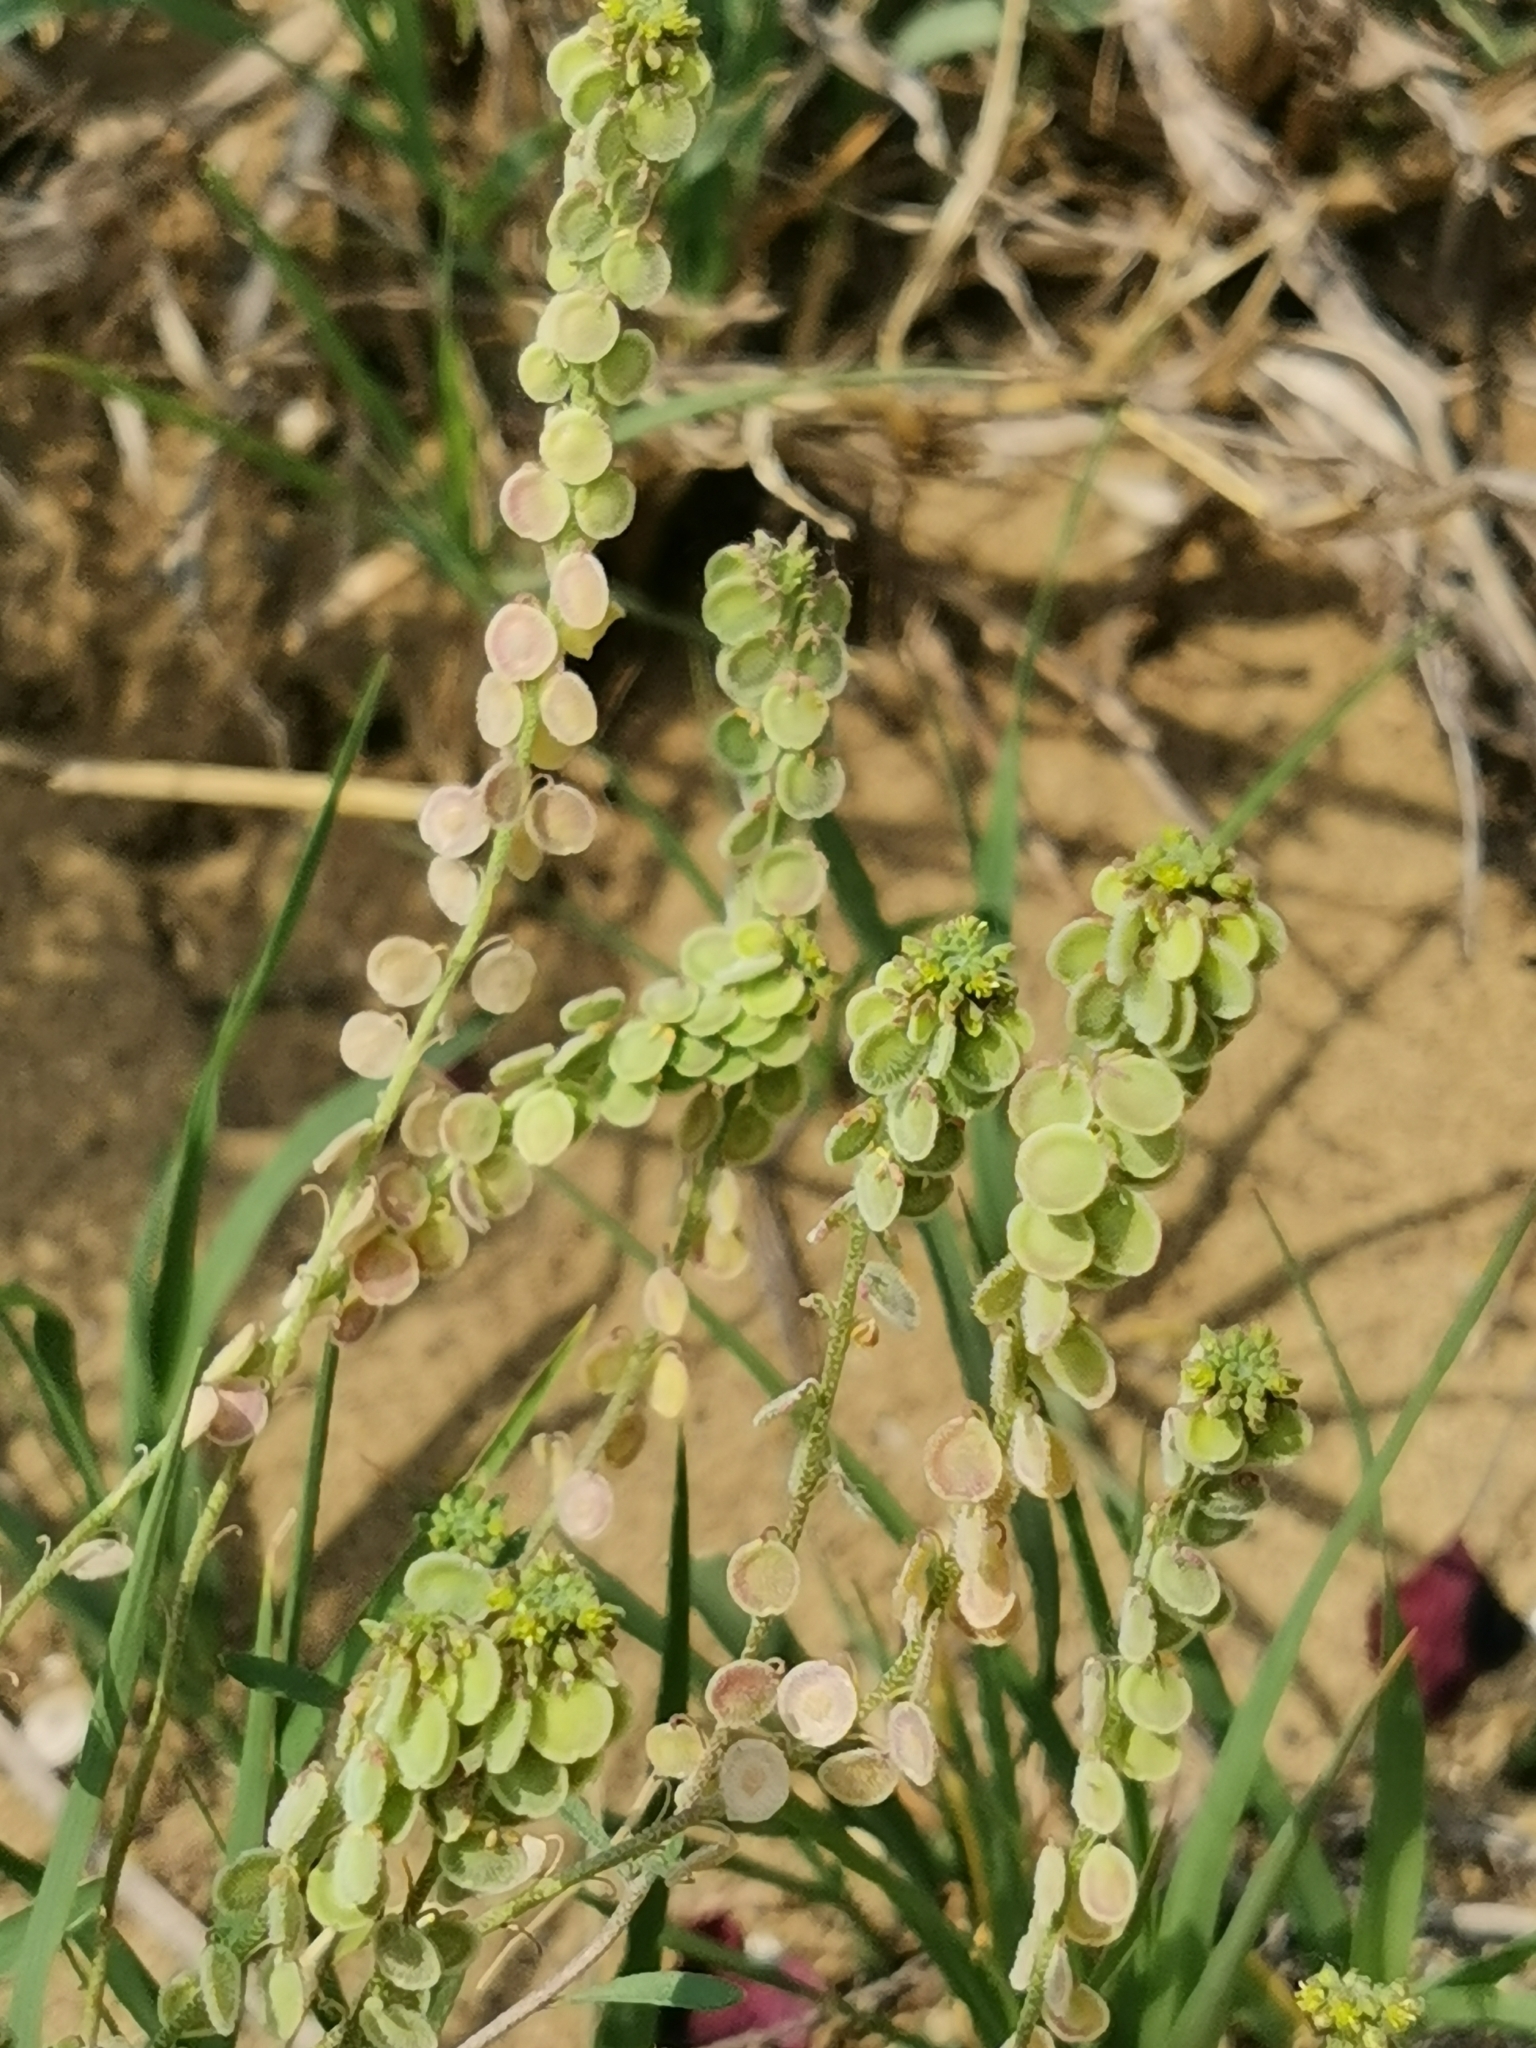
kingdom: Plantae
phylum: Tracheophyta
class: Magnoliopsida
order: Brassicales
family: Brassicaceae
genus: Clypeola
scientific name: Clypeola jonthlaspi
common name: Disk cress
